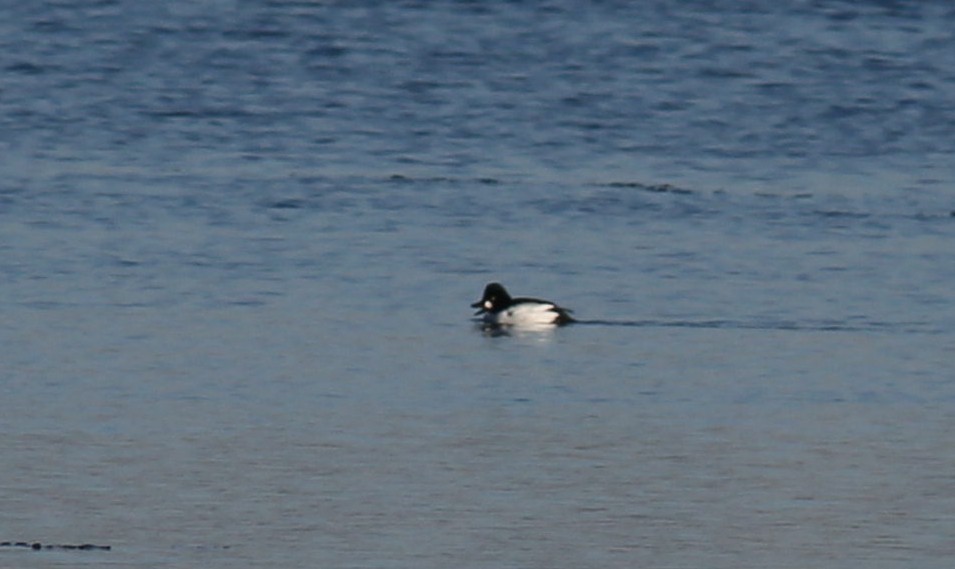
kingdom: Animalia
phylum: Chordata
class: Aves
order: Anseriformes
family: Anatidae
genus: Bucephala
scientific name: Bucephala clangula
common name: Common goldeneye
